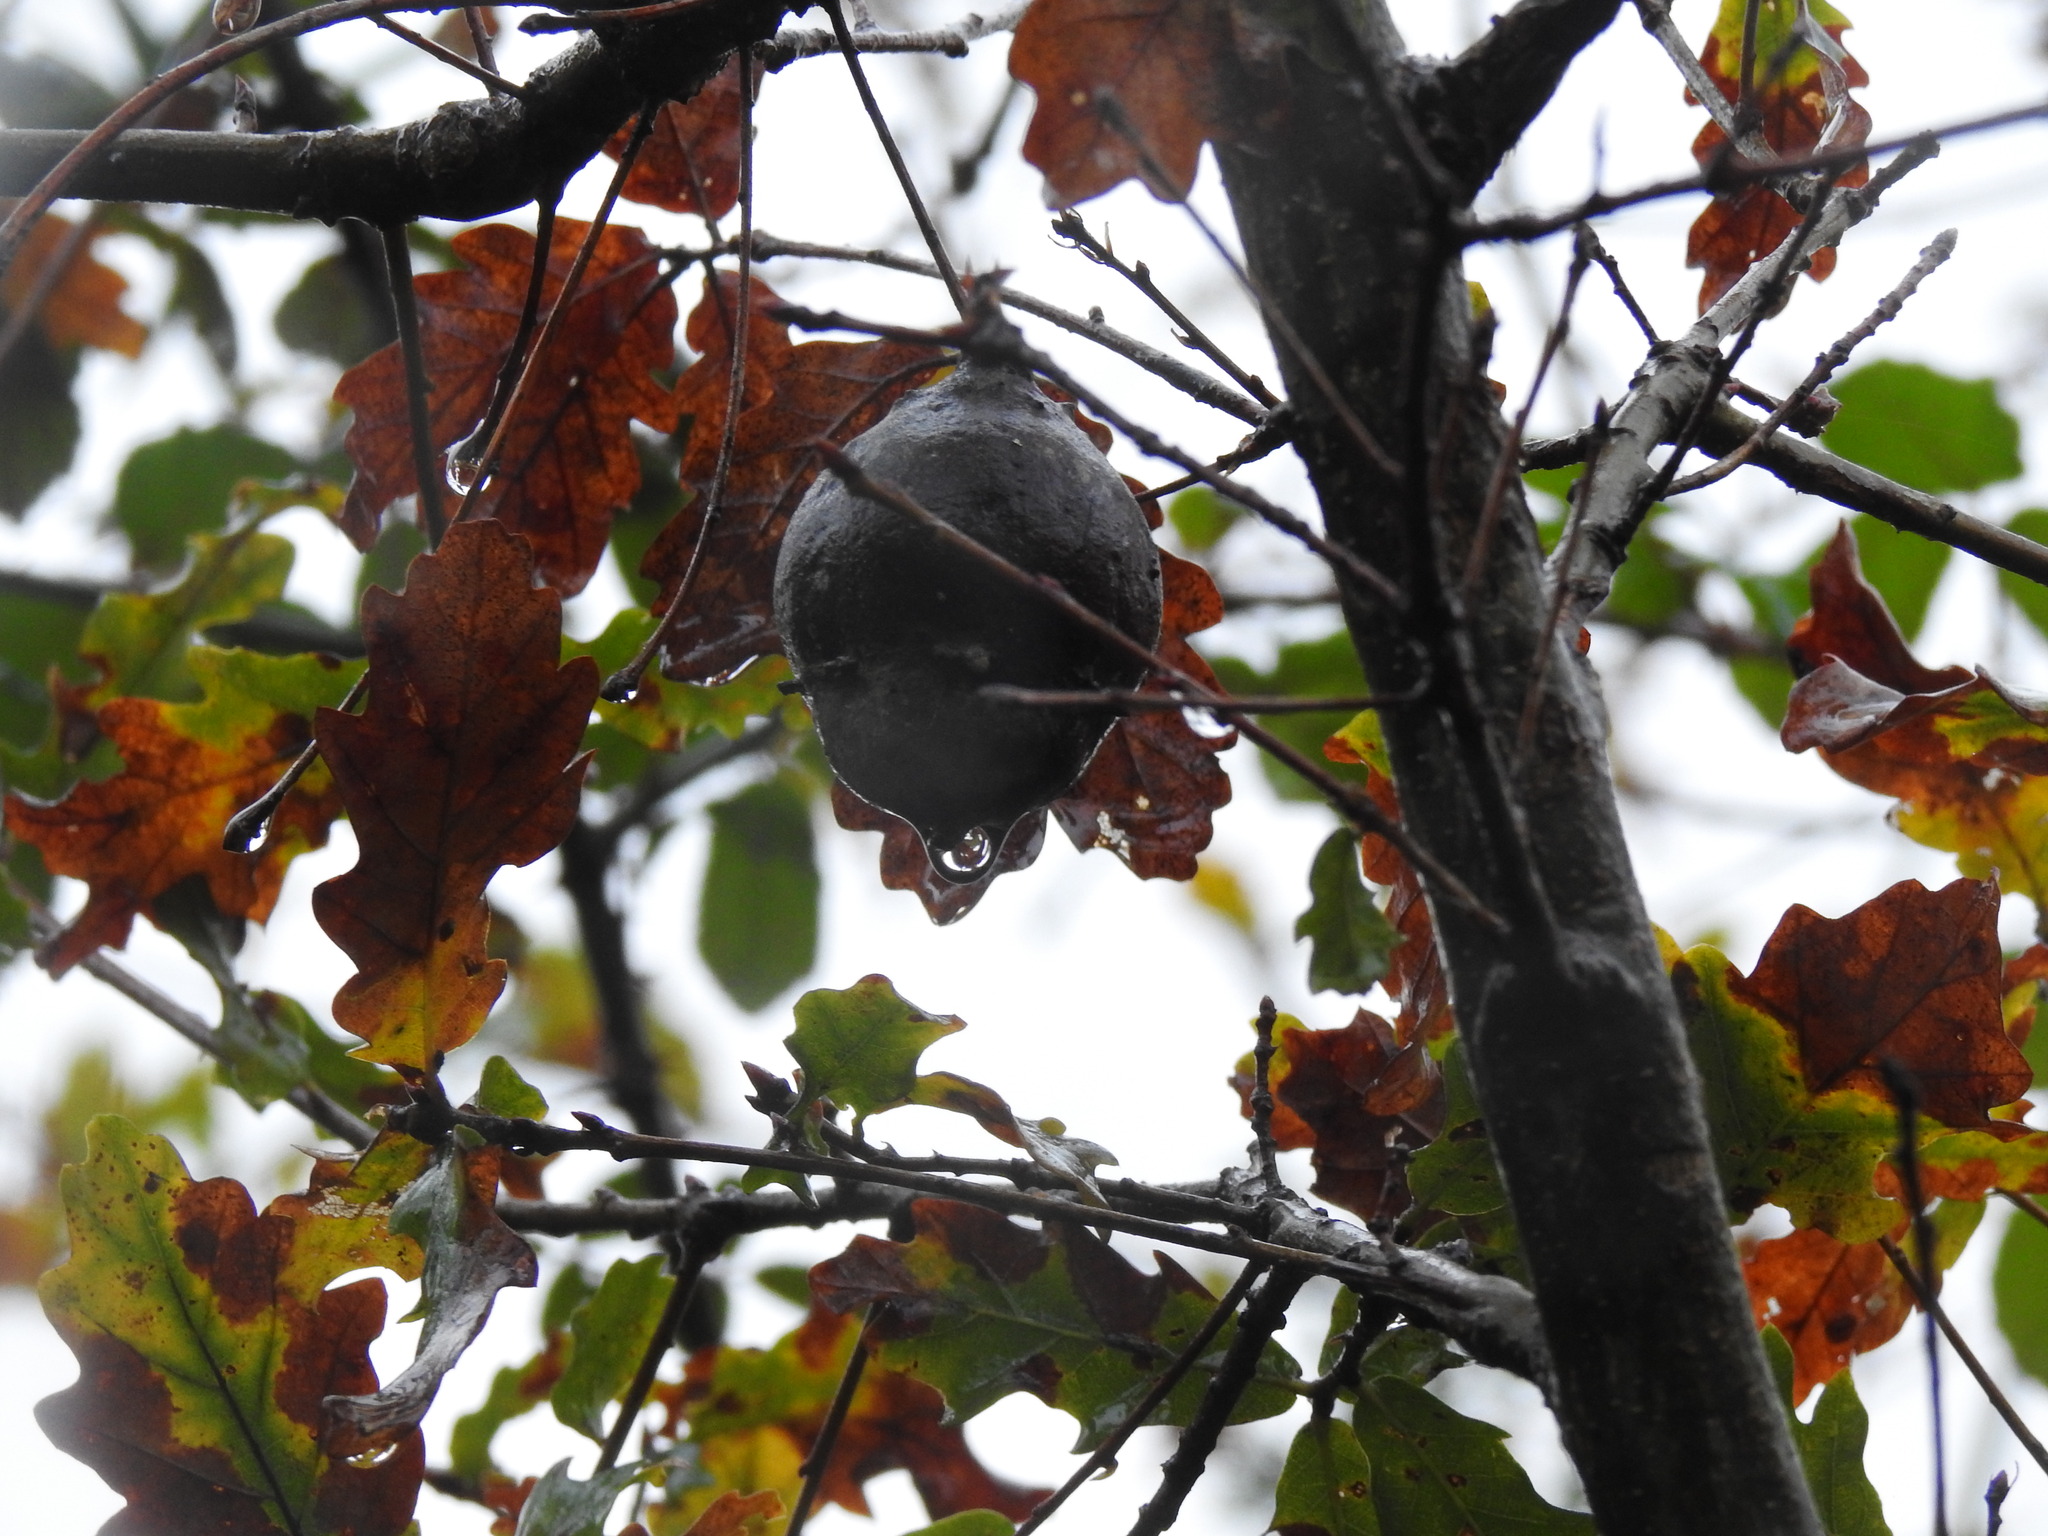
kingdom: Animalia
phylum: Arthropoda
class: Insecta
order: Hymenoptera
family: Cynipidae
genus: Andricus
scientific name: Andricus quercustozae
